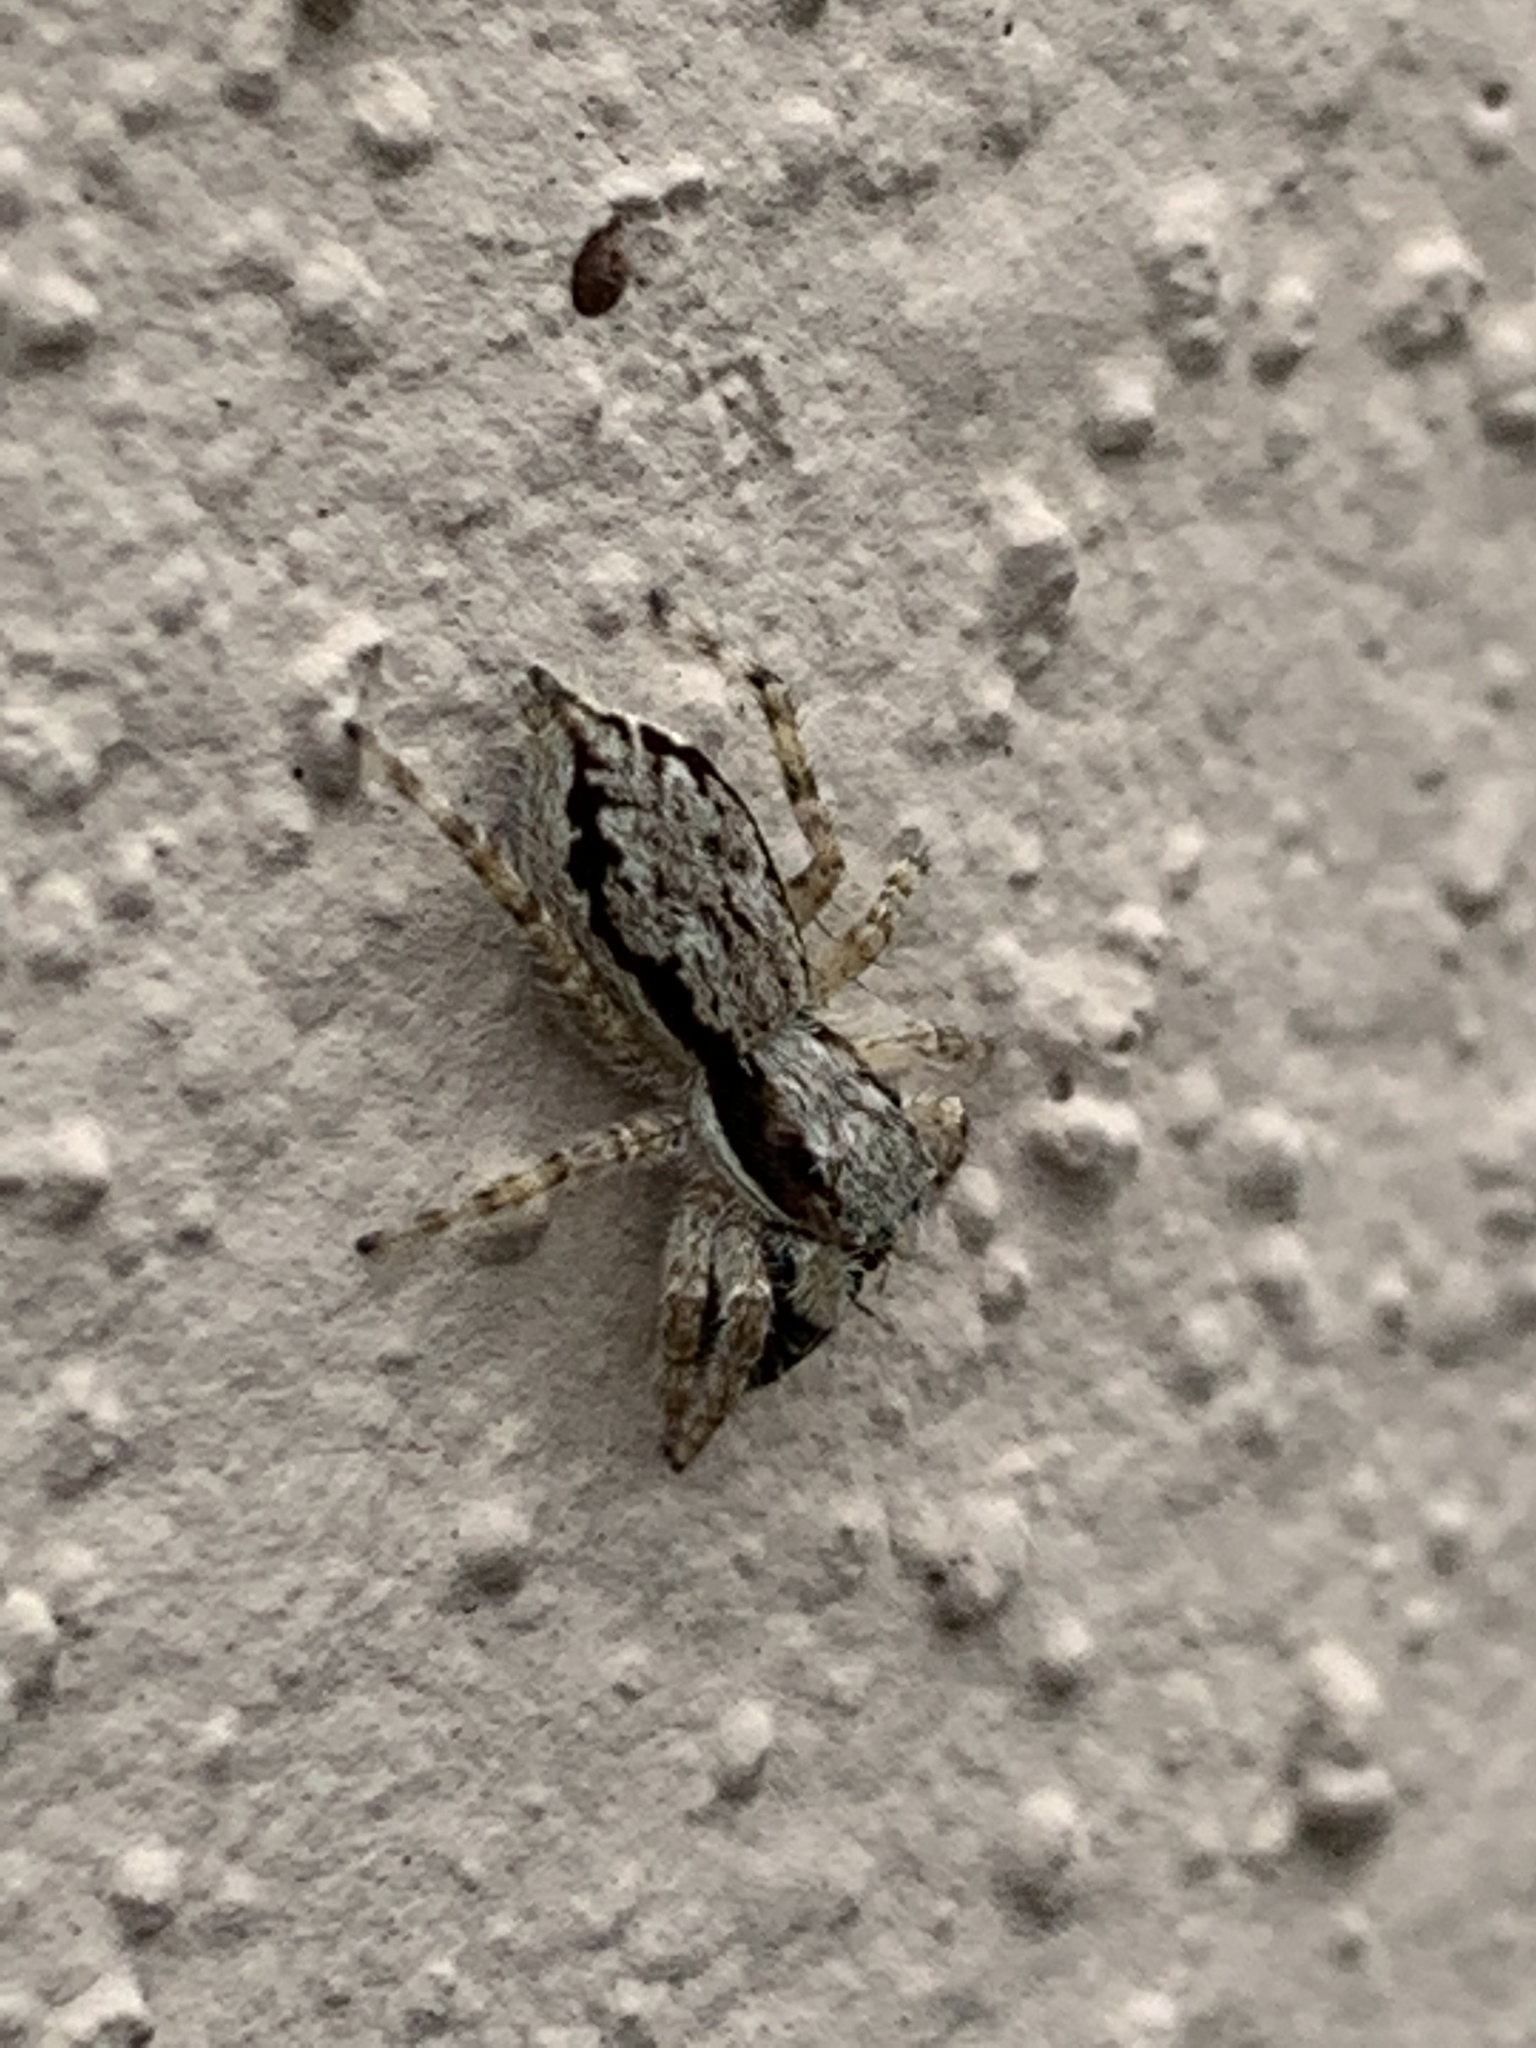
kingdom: Animalia
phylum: Arthropoda
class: Arachnida
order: Araneae
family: Salticidae
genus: Menemerus
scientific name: Menemerus bivittatus
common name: Gray wall jumper
